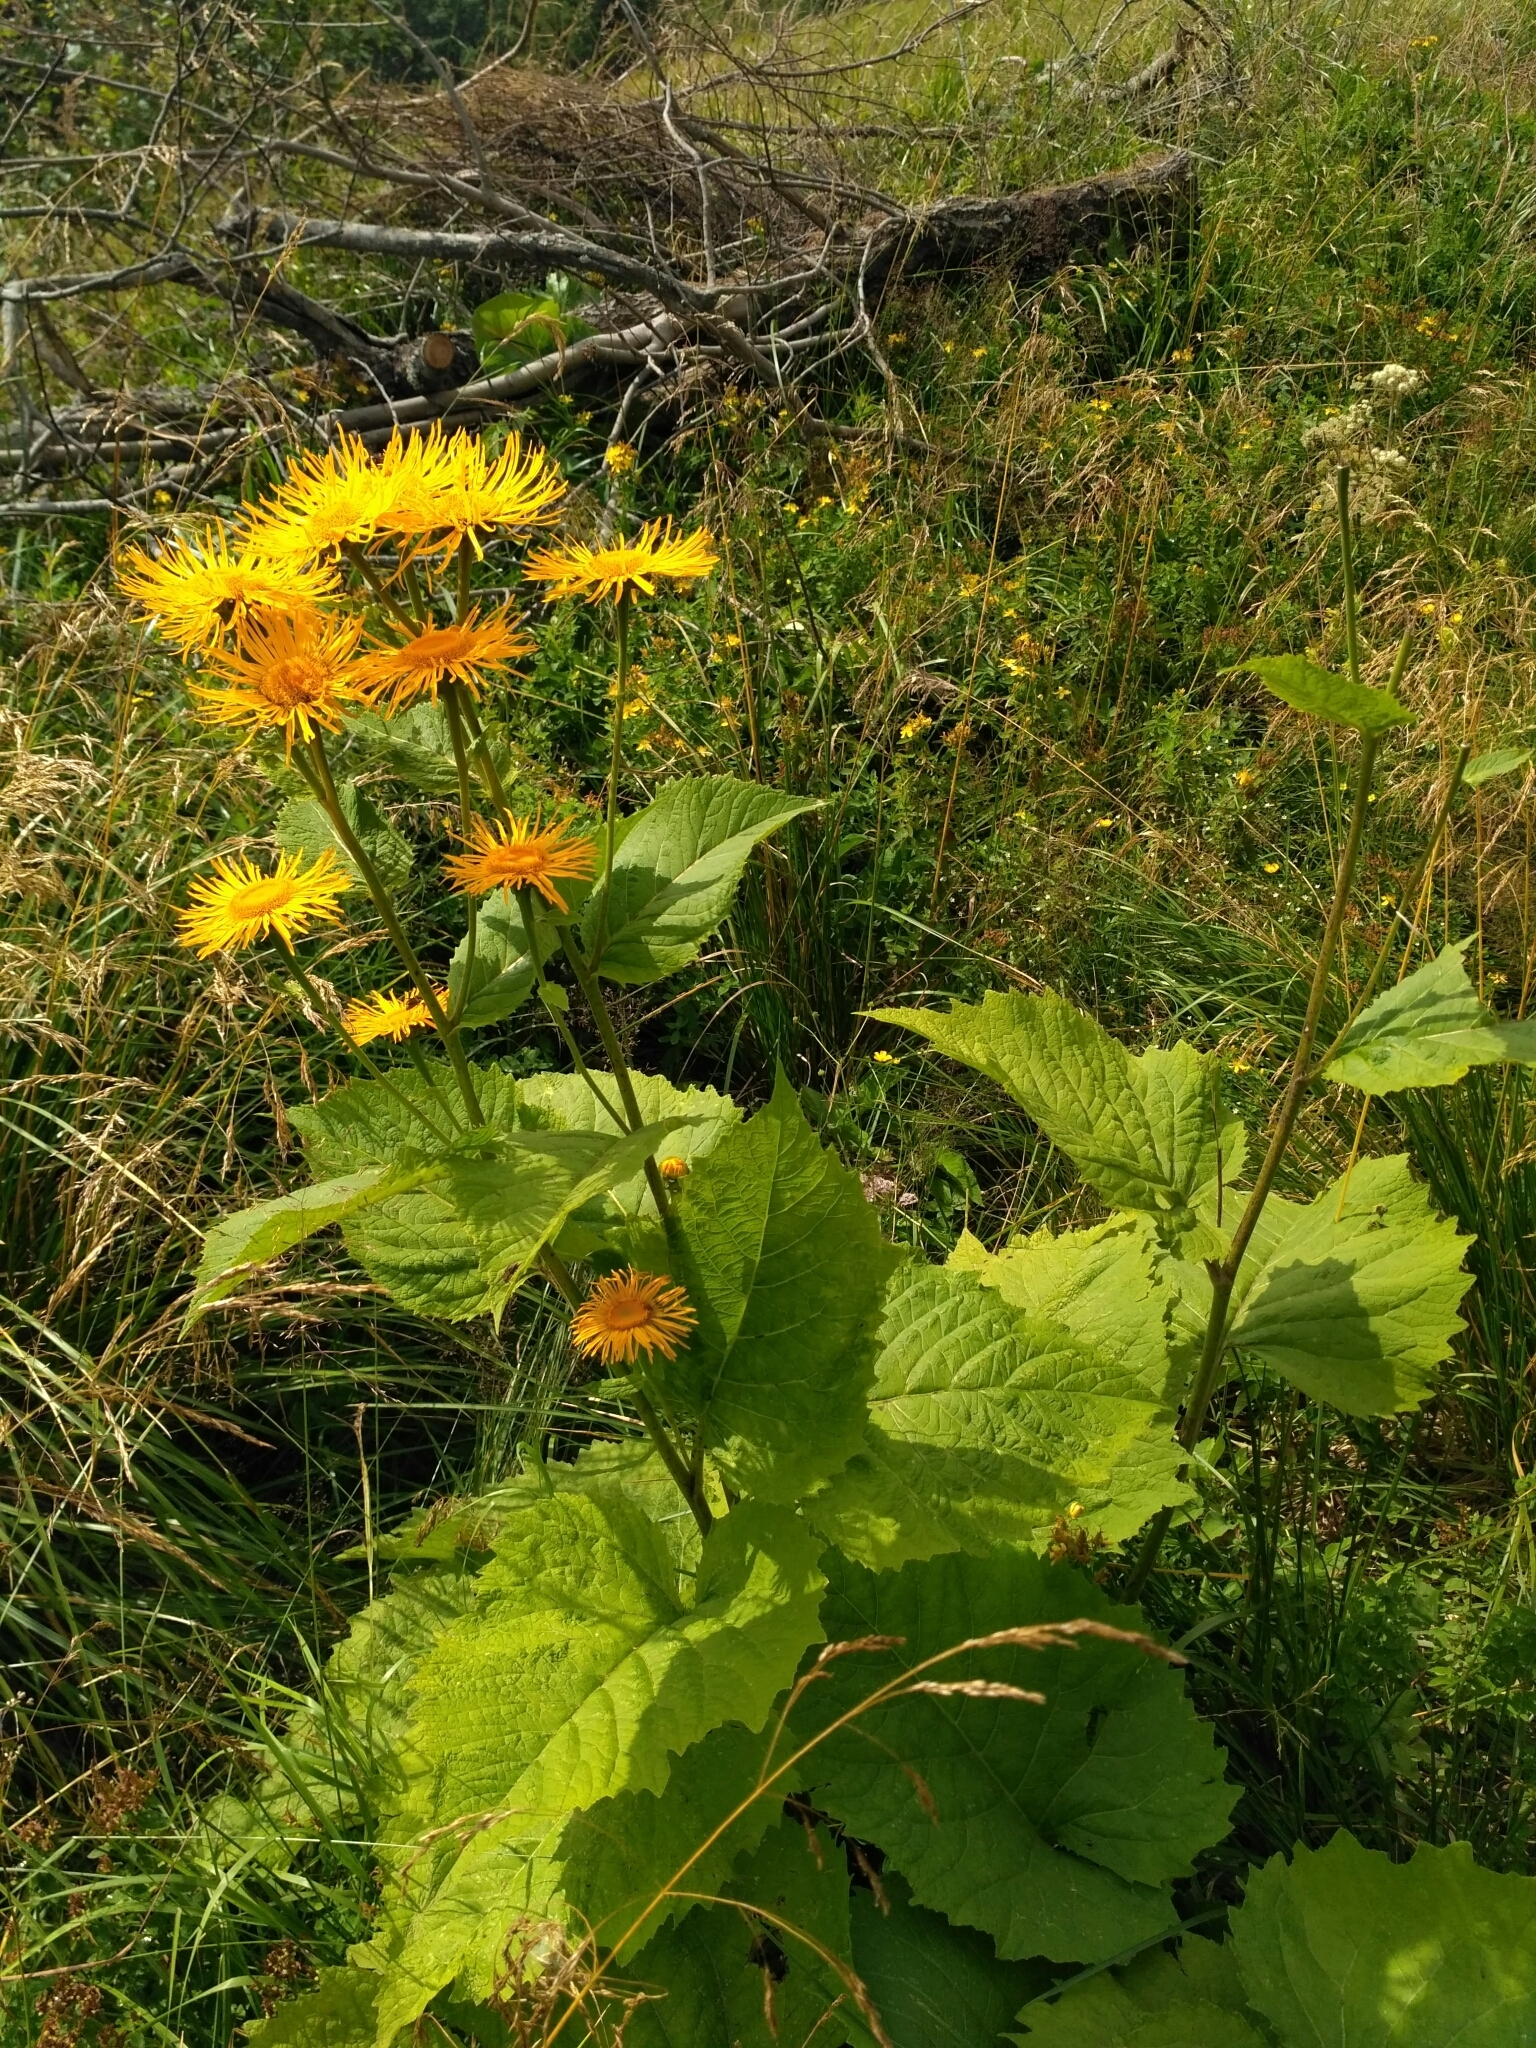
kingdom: Plantae
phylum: Tracheophyta
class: Magnoliopsida
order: Asterales
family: Asteraceae
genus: Telekia
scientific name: Telekia speciosa
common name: Yellow oxeye
